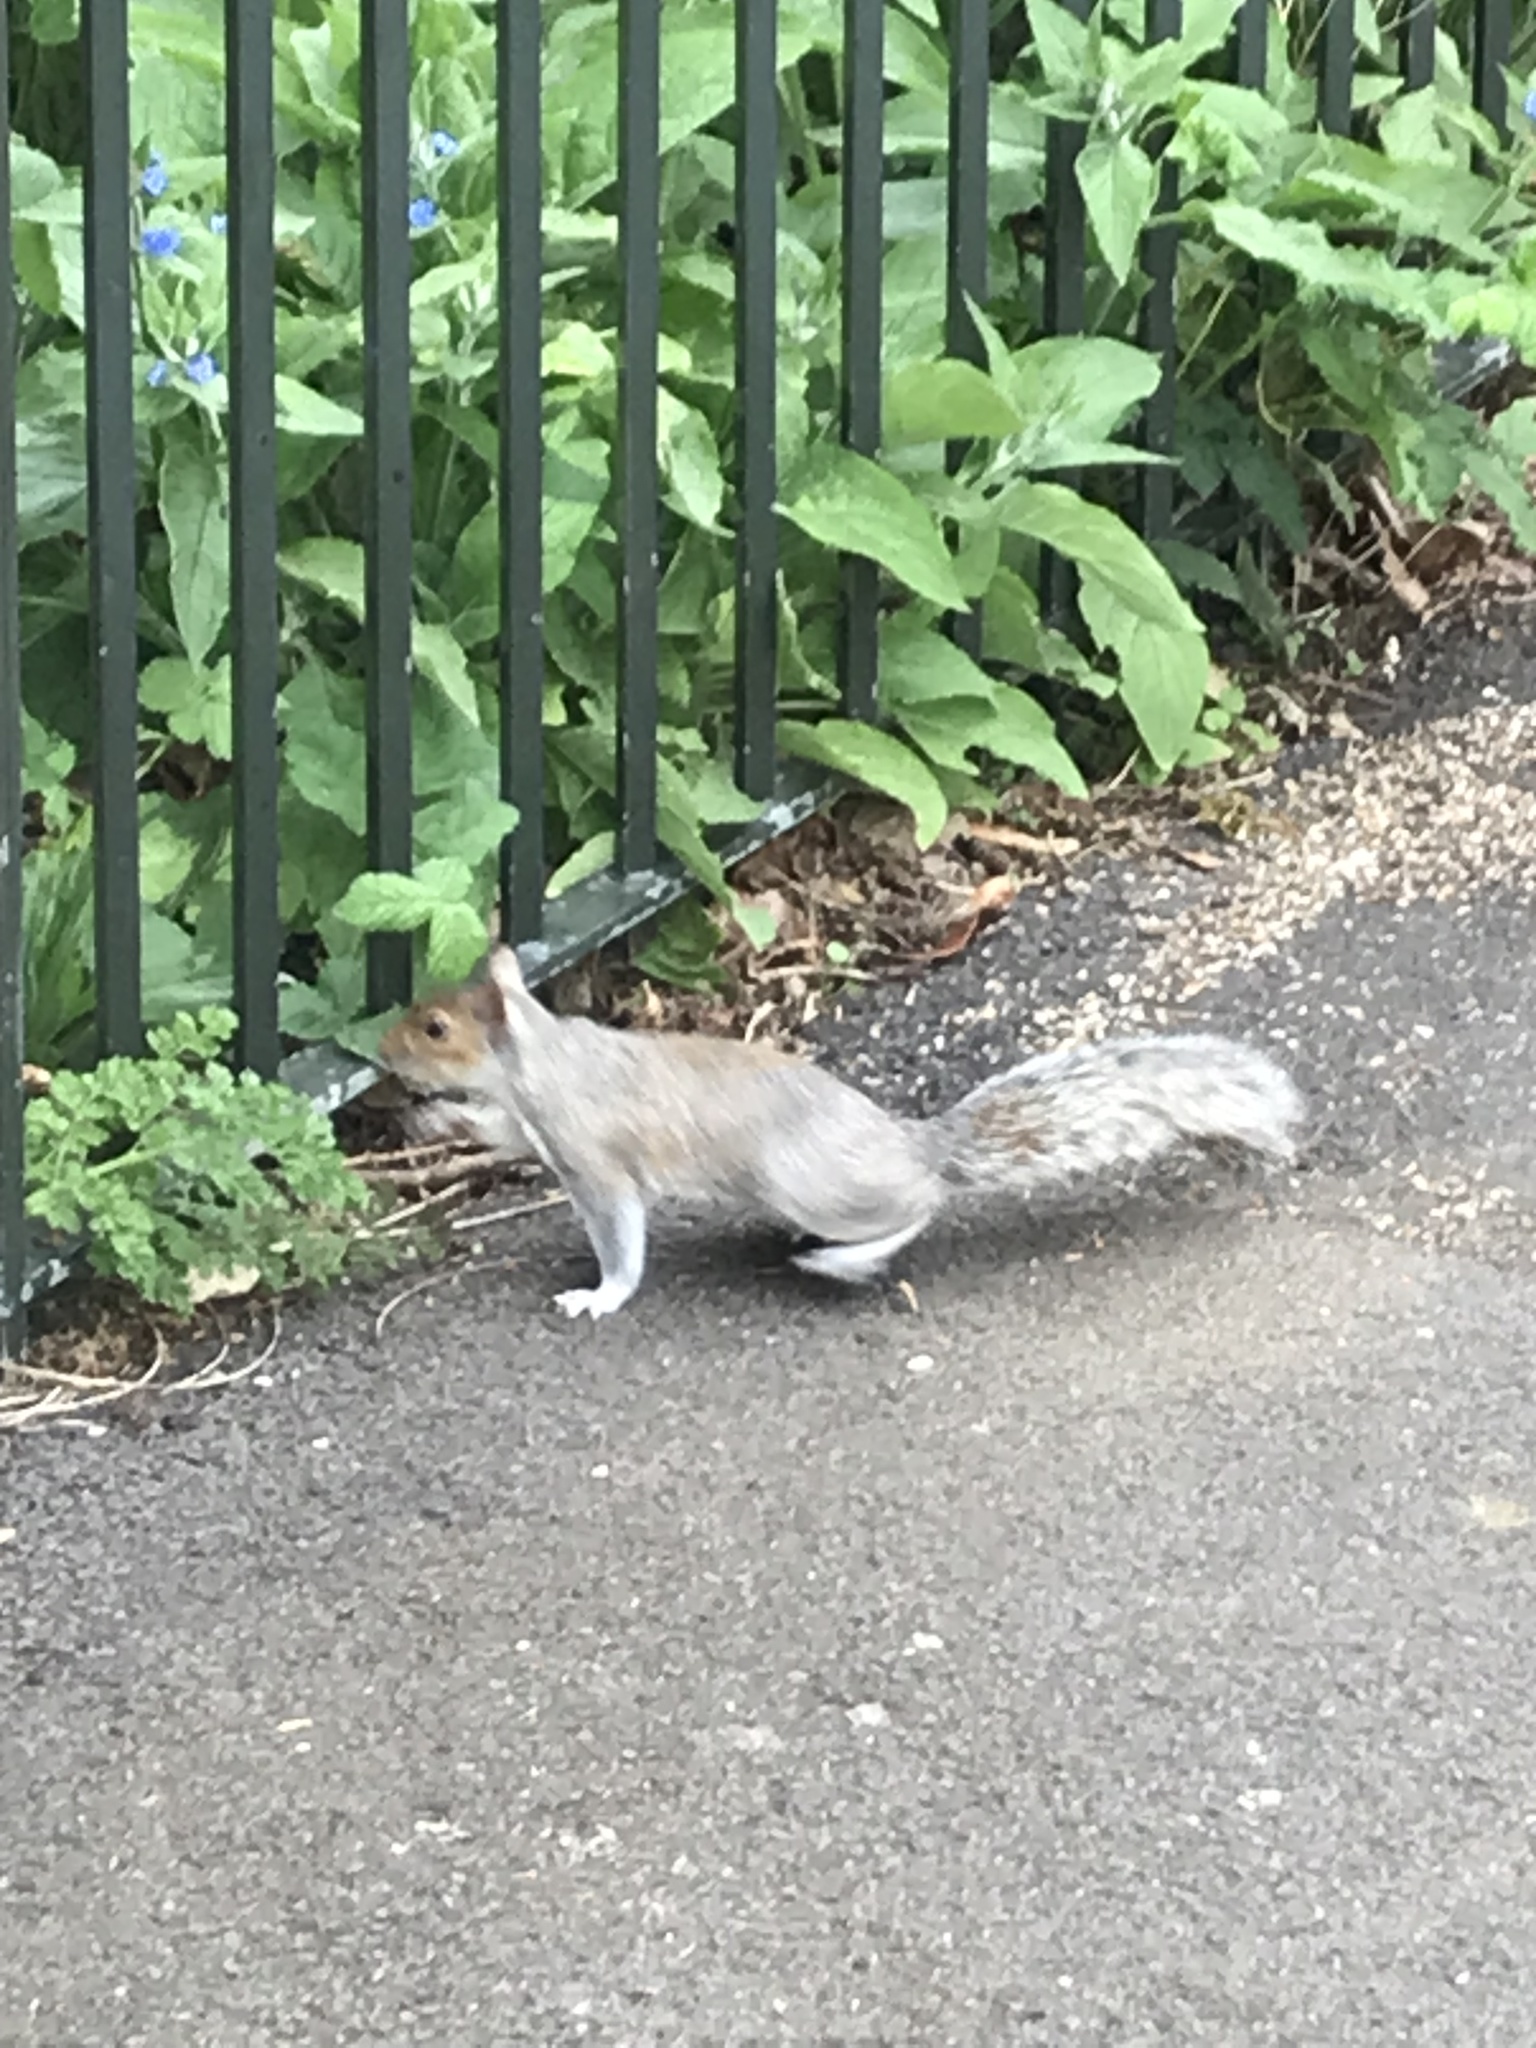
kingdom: Animalia
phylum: Chordata
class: Mammalia
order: Rodentia
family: Sciuridae
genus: Sciurus
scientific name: Sciurus carolinensis
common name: Eastern gray squirrel
